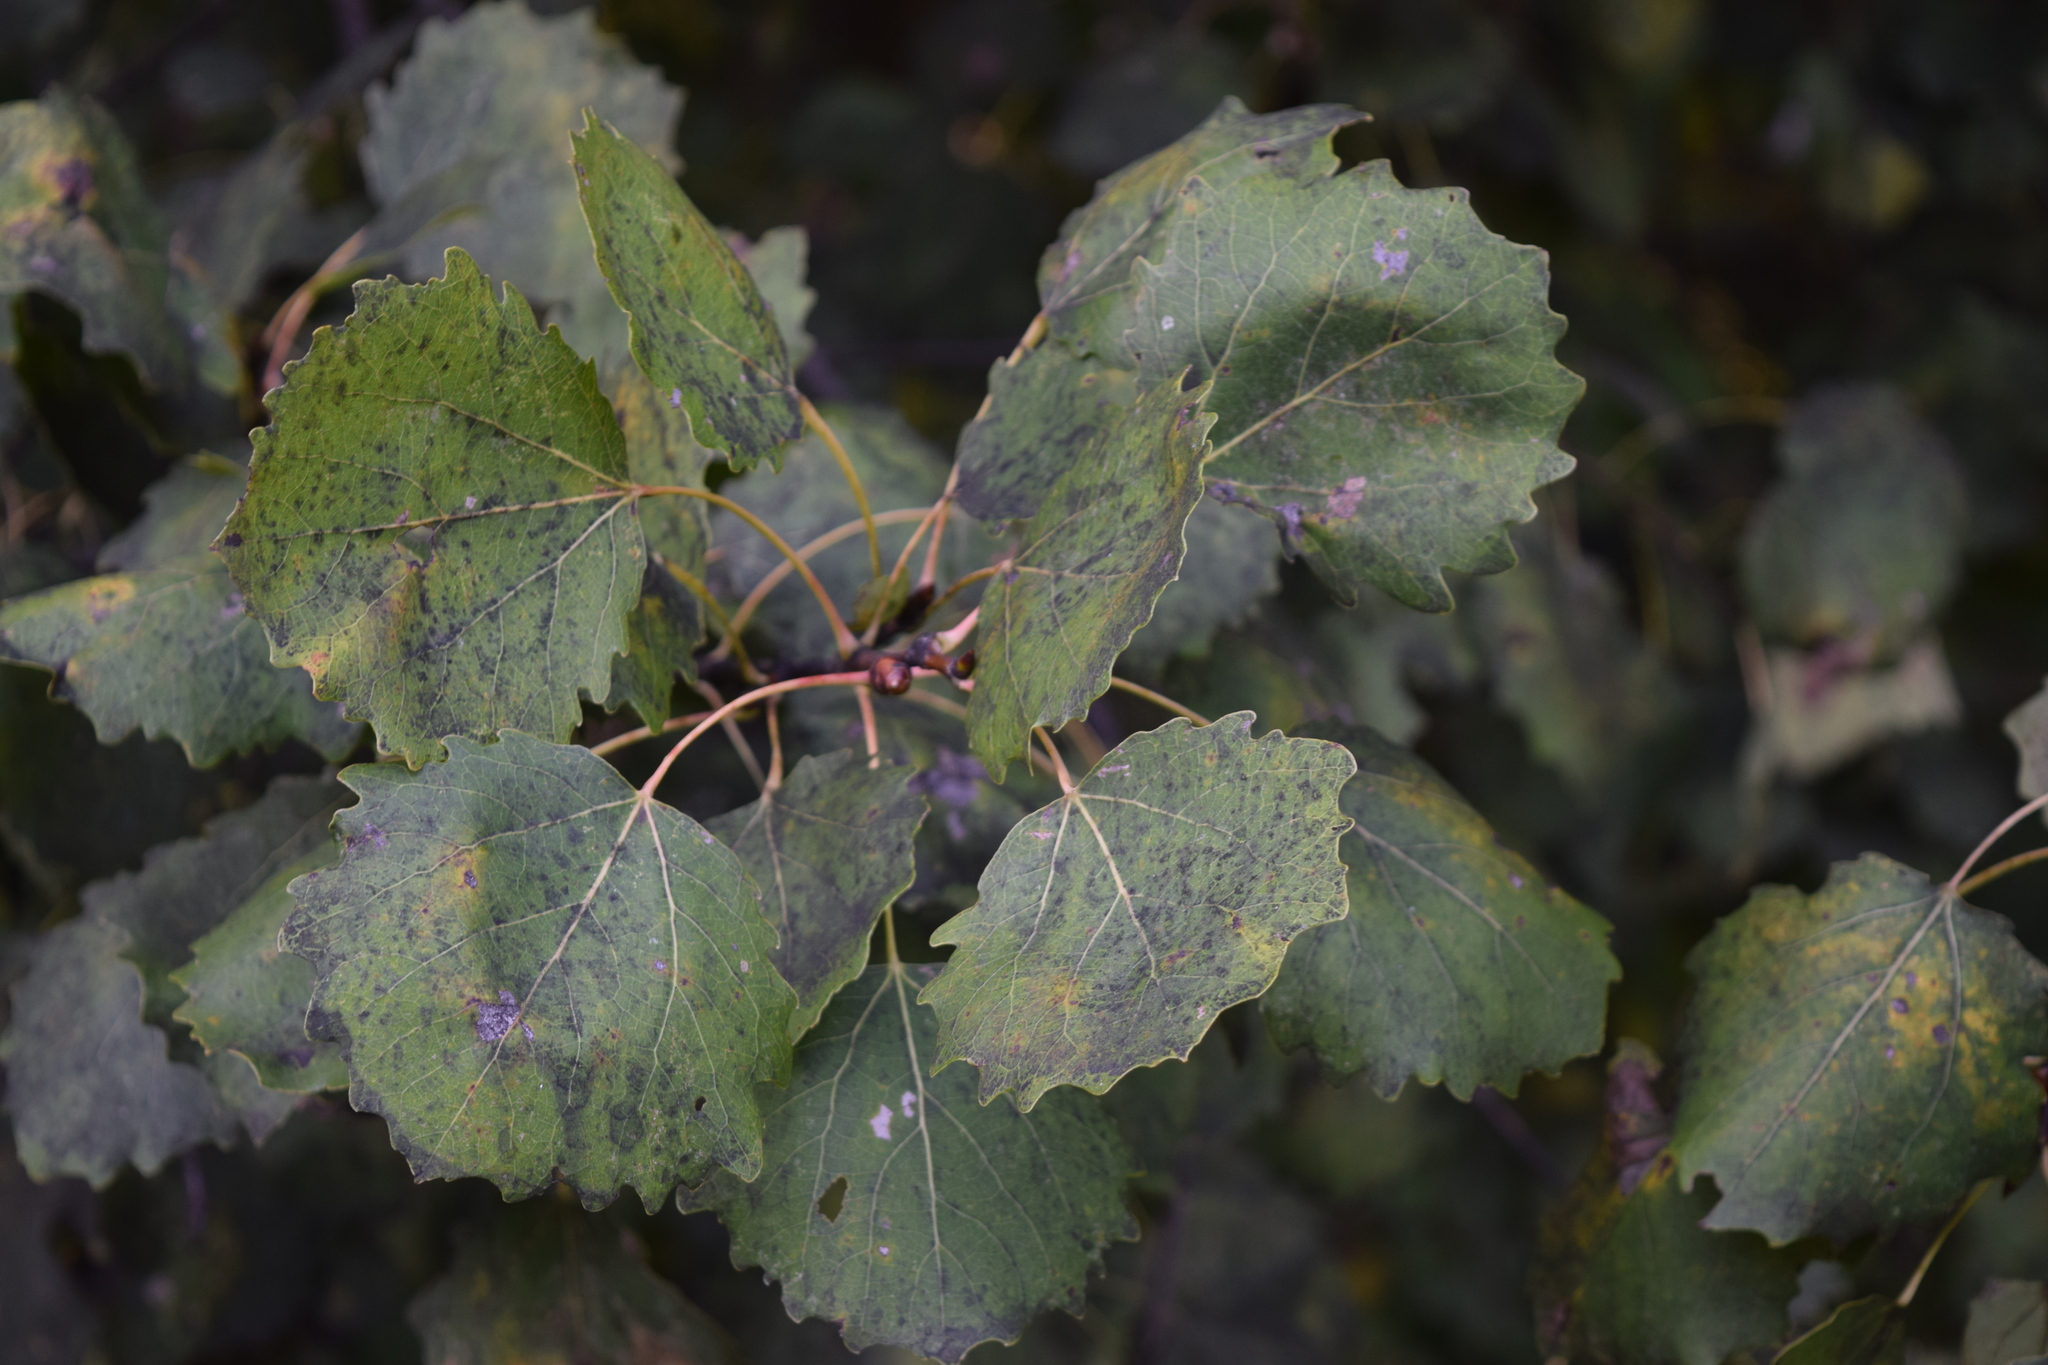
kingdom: Plantae
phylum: Tracheophyta
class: Magnoliopsida
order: Malpighiales
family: Salicaceae
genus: Populus
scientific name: Populus tremula
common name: European aspen
